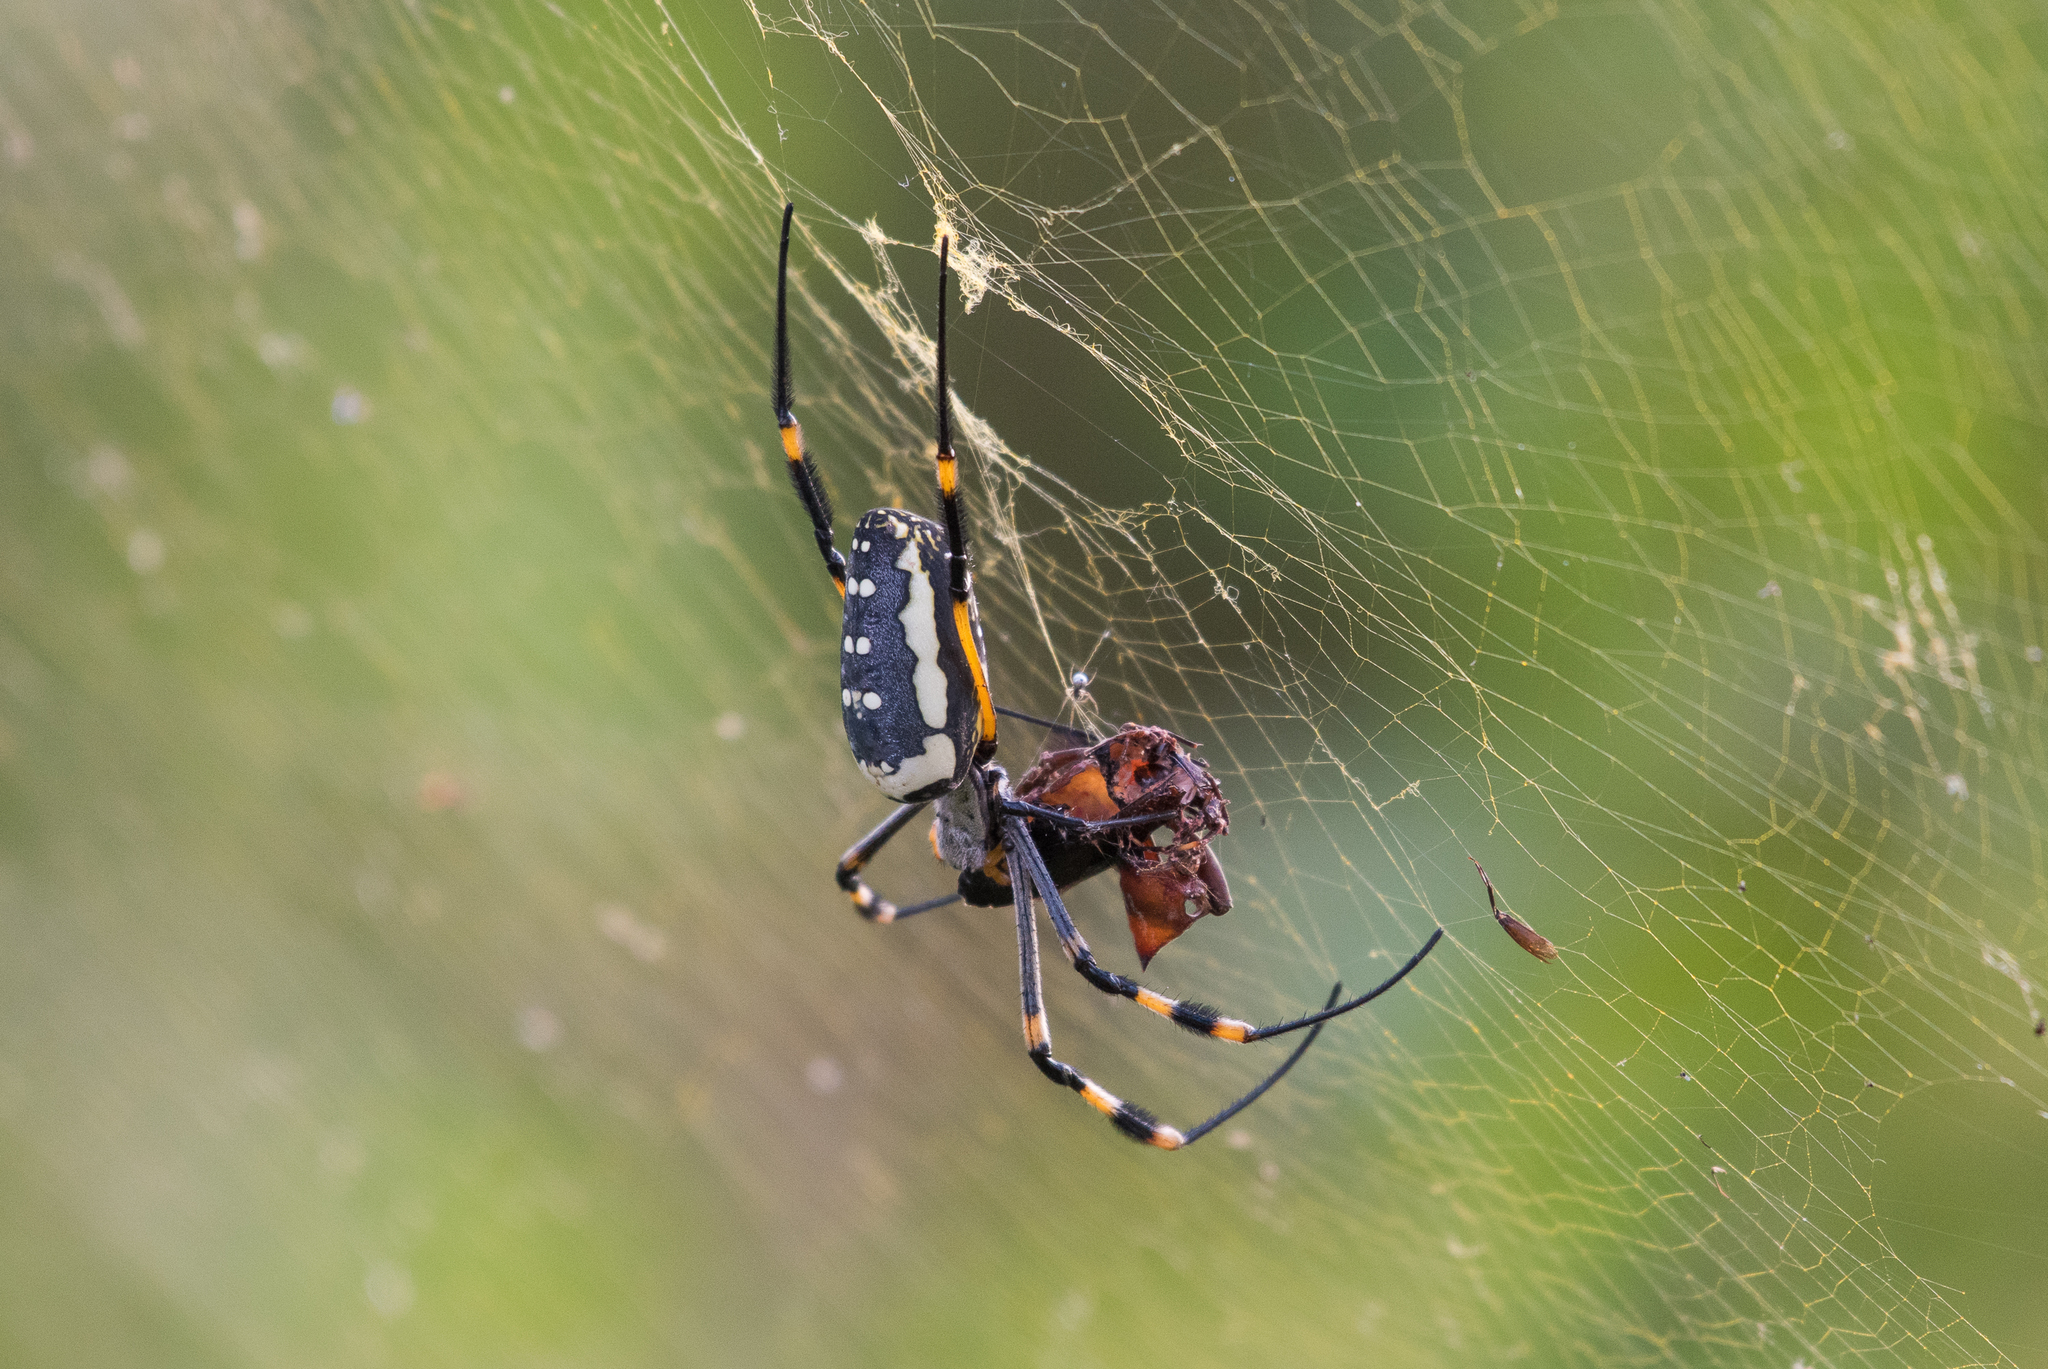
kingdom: Animalia
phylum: Arthropoda
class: Arachnida
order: Araneae
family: Araneidae
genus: Trichonephila
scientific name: Trichonephila senegalensis
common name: Banded golden orb weaver
